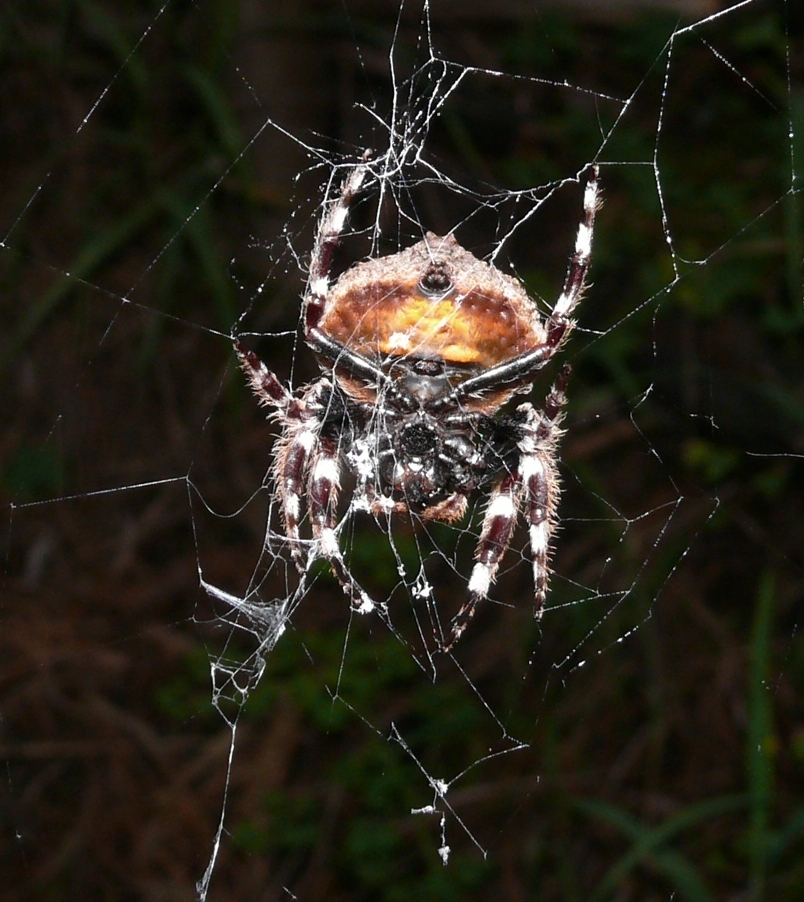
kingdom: Animalia
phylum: Arthropoda
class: Arachnida
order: Araneae
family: Araneidae
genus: Caerostris
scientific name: Caerostris
